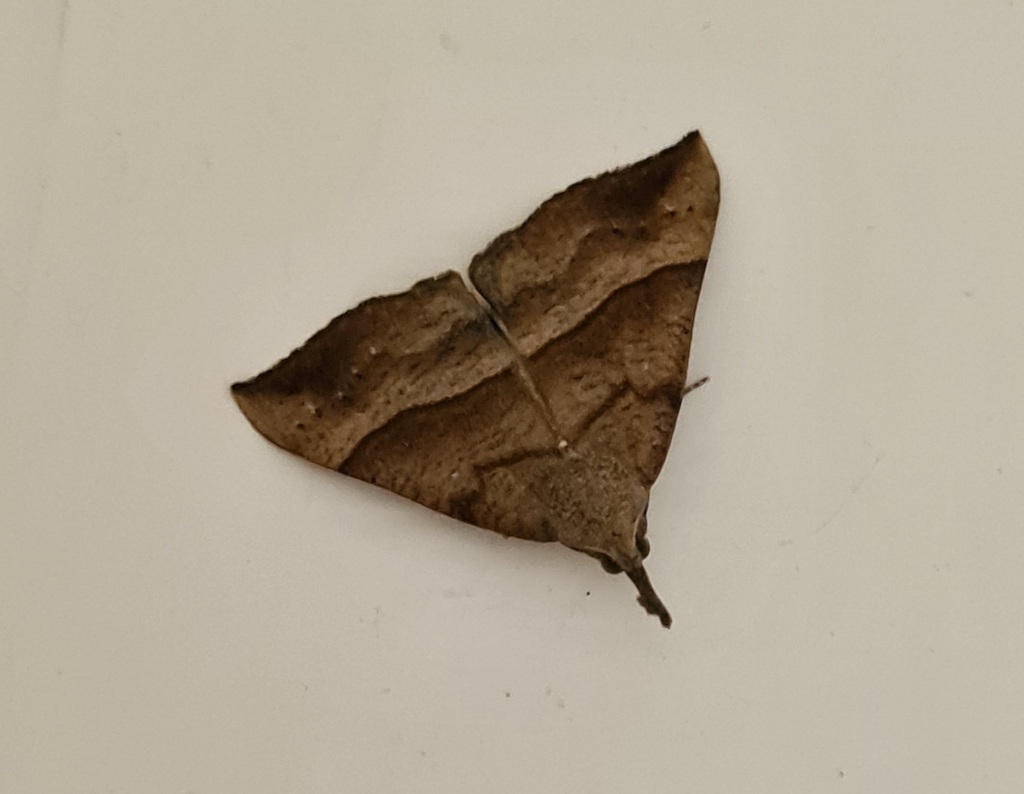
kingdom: Animalia
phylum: Arthropoda
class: Insecta
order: Lepidoptera
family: Erebidae
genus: Hypena
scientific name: Hypena proboscidalis
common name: Snout
